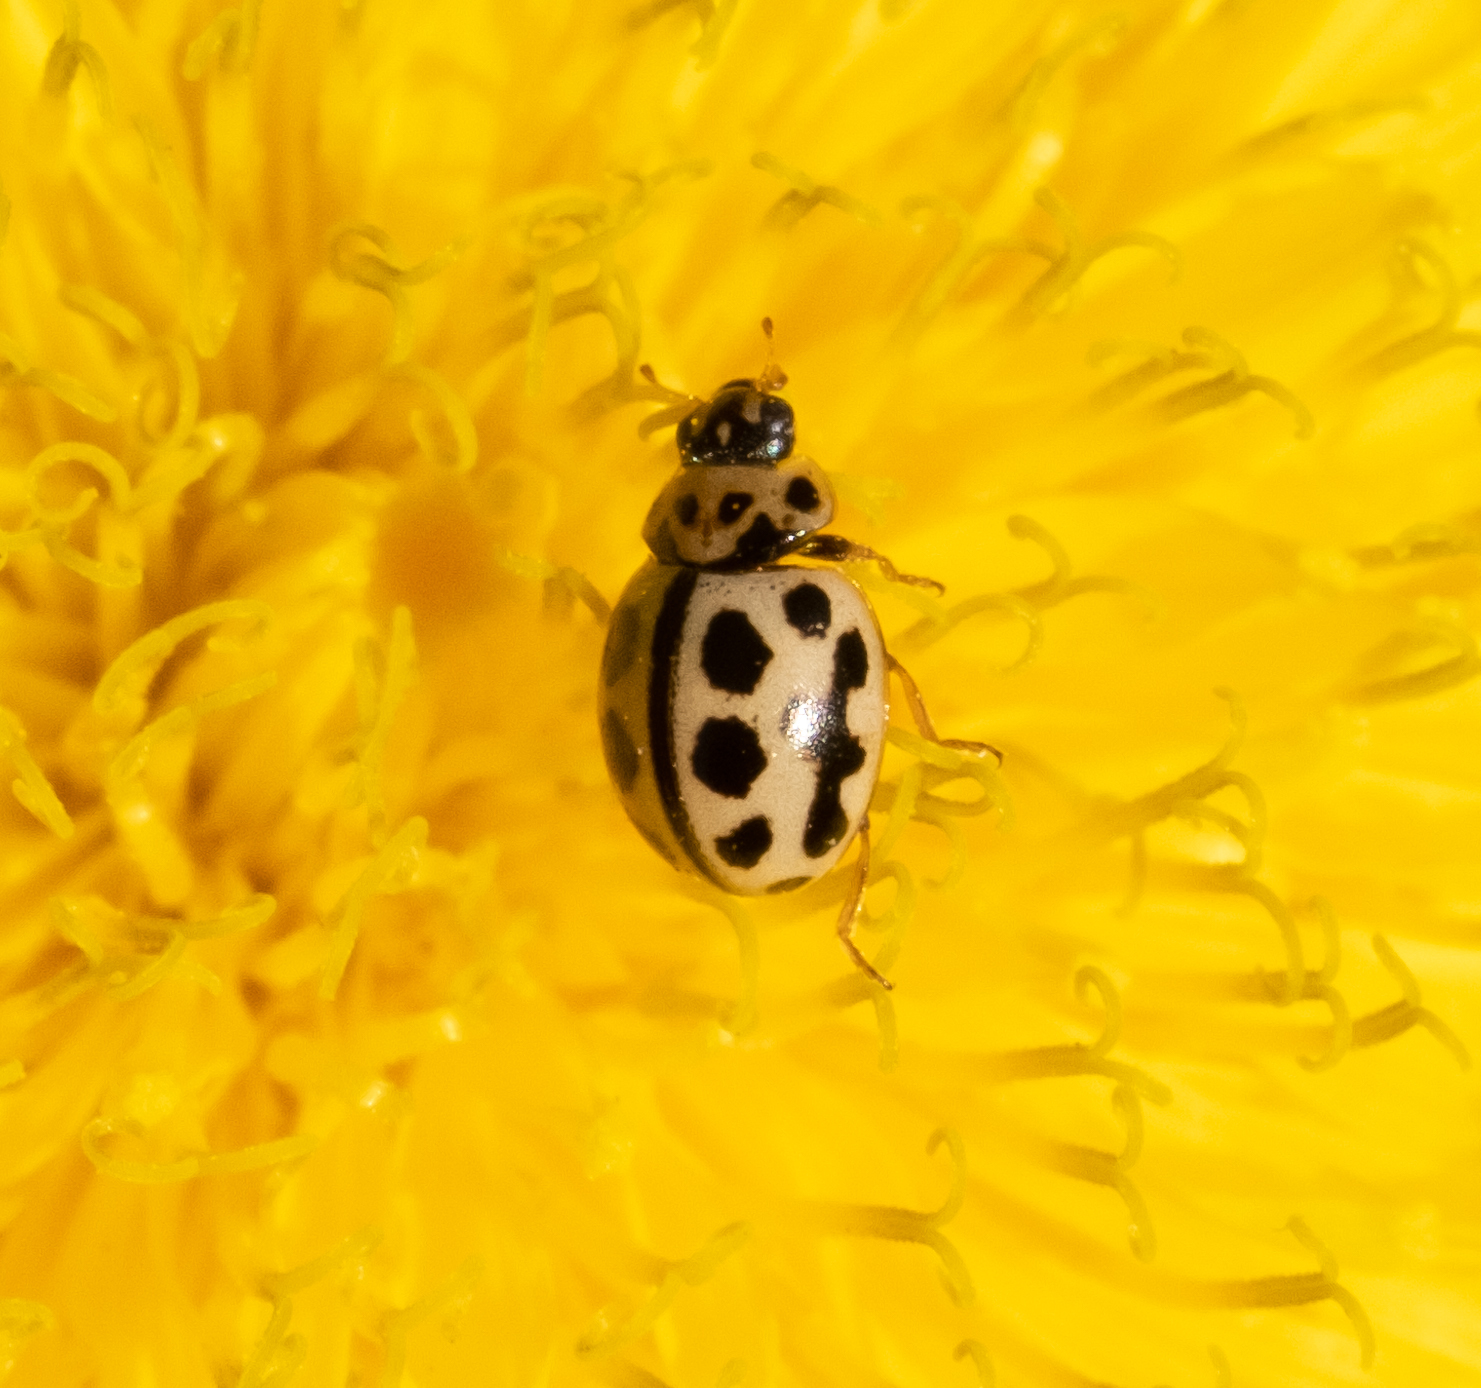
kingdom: Animalia
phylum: Arthropoda
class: Insecta
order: Coleoptera
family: Coccinellidae
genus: Tytthaspis
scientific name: Tytthaspis sedecimpunctata
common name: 16-spot ladybird
